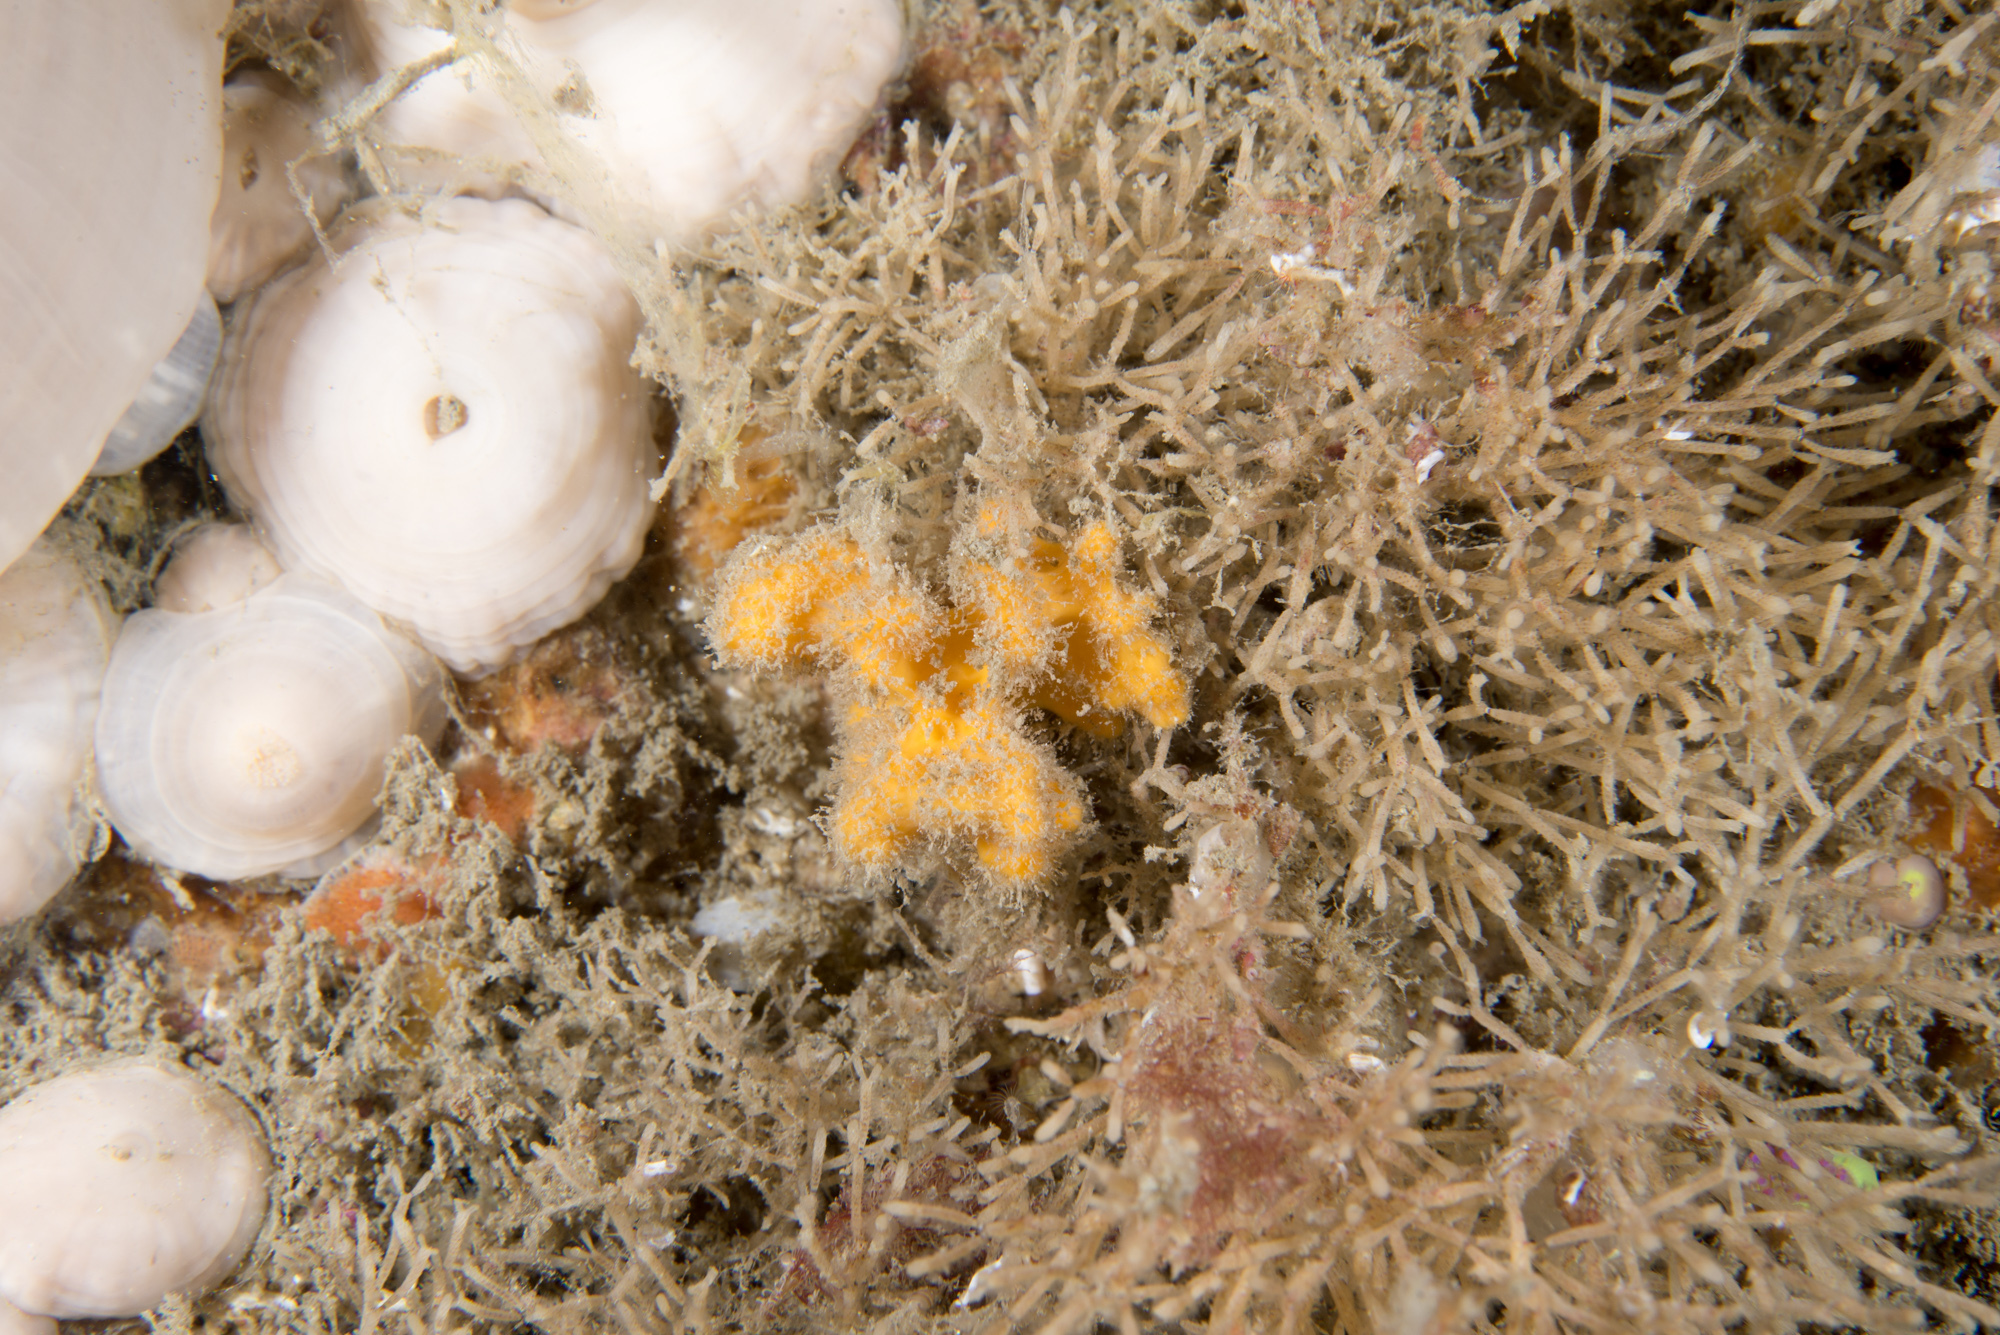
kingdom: Animalia
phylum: Porifera
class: Demospongiae
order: Axinellida
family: Stelligeridae
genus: Stelligera
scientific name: Stelligera montagui
